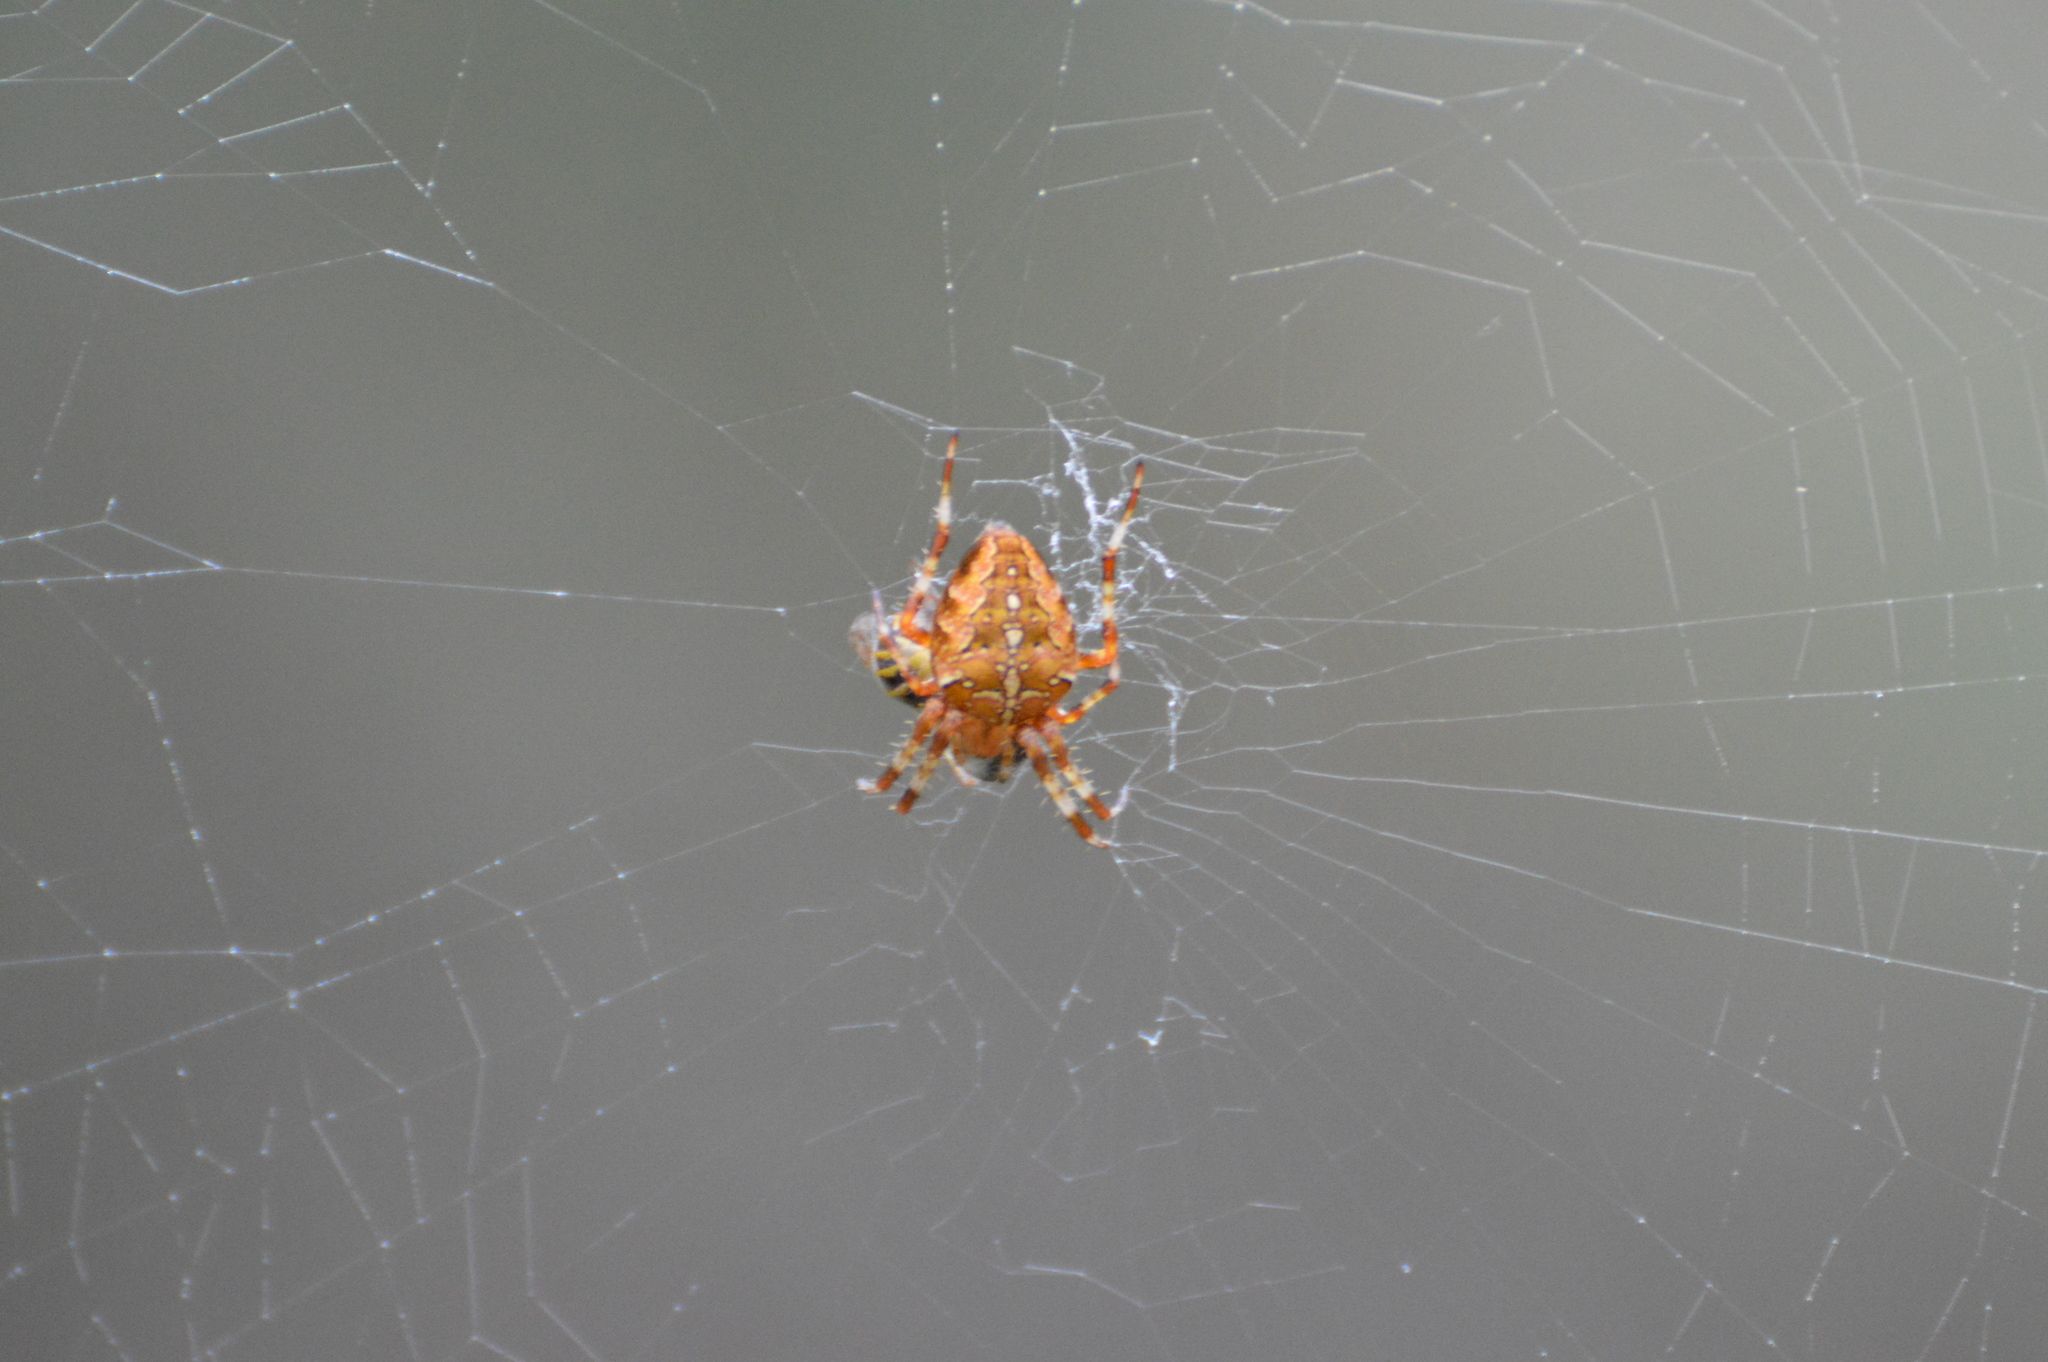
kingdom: Animalia
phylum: Arthropoda
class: Arachnida
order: Araneae
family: Araneidae
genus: Araneus
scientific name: Araneus diadematus
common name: Cross orbweaver
